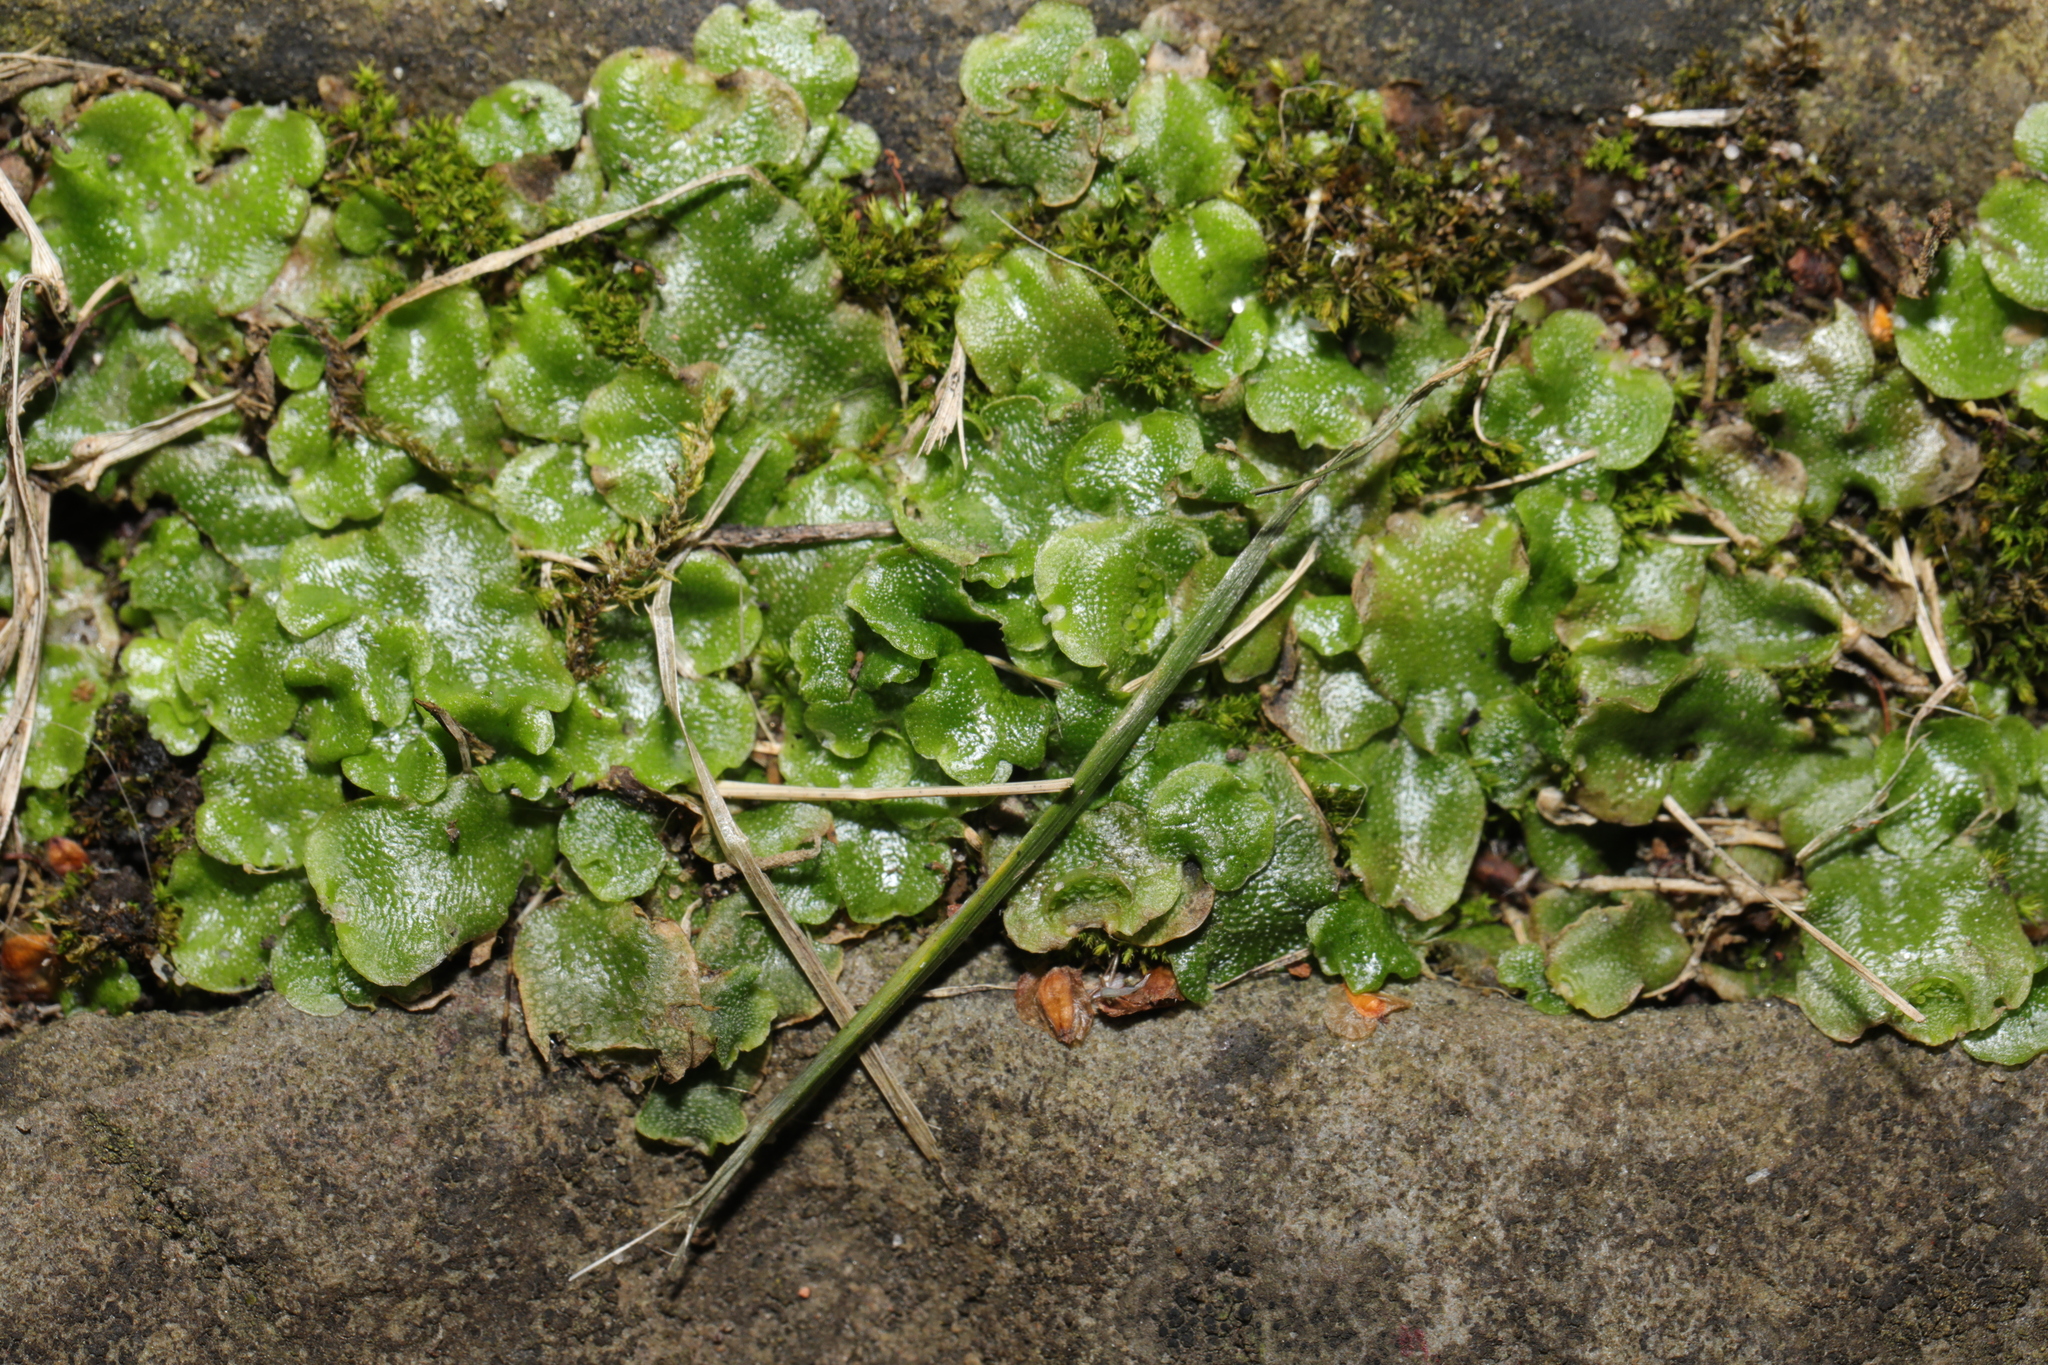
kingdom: Plantae
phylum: Marchantiophyta
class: Marchantiopsida
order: Lunulariales
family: Lunulariaceae
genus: Lunularia
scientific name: Lunularia cruciata
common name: Crescent-cup liverwort
